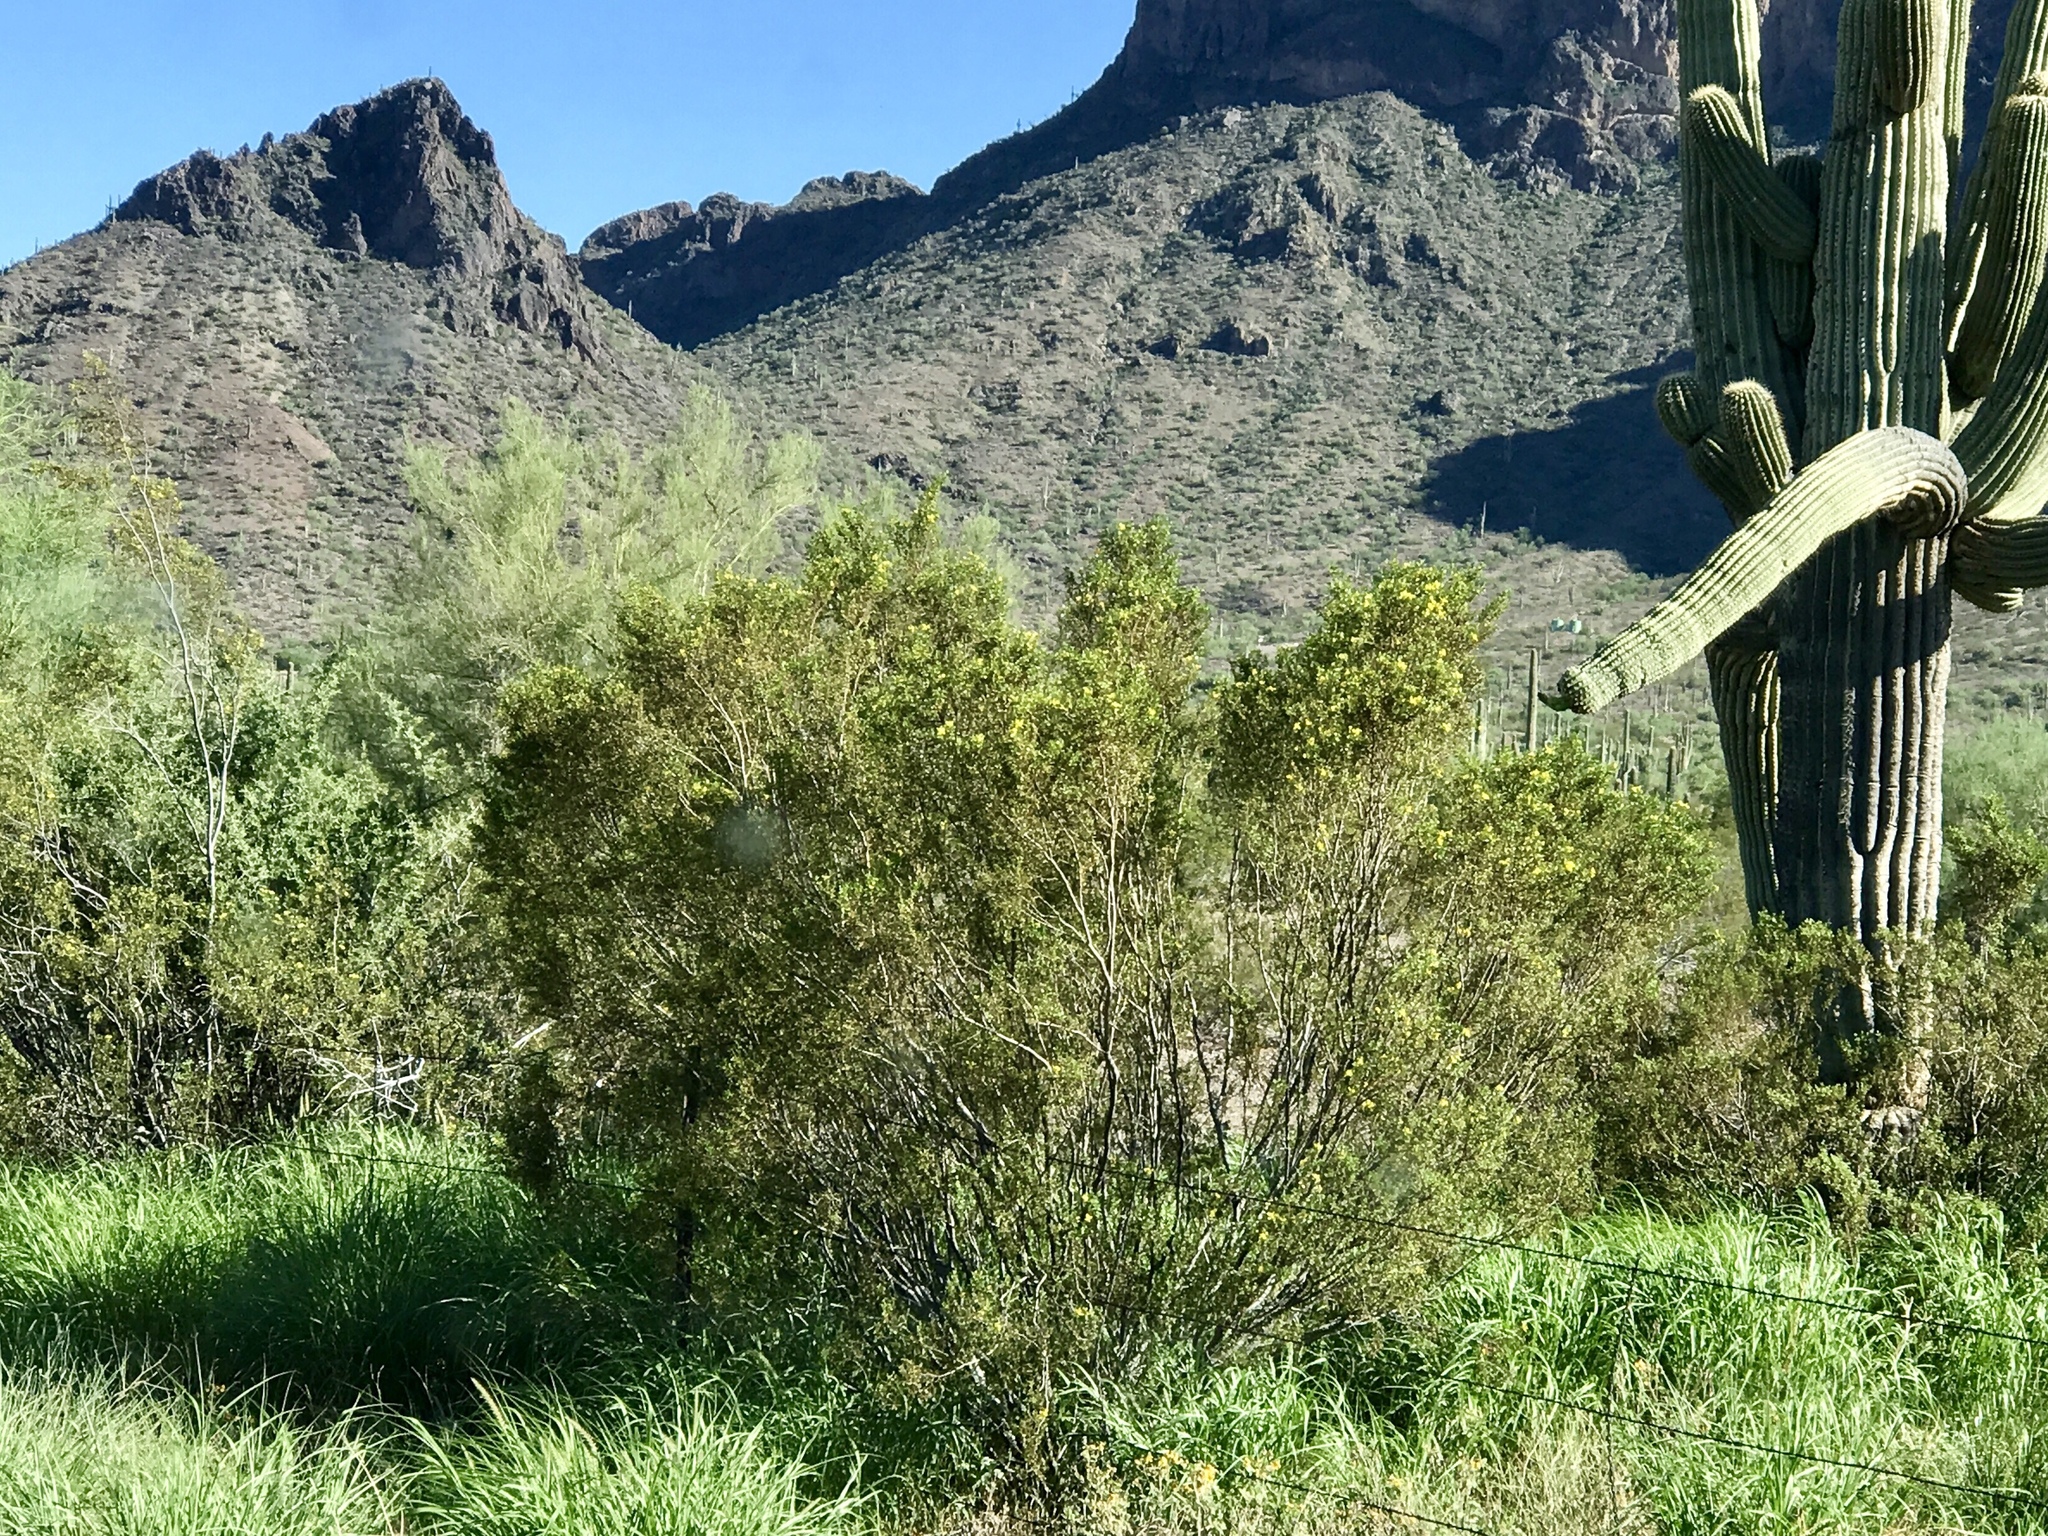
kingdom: Plantae
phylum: Tracheophyta
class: Magnoliopsida
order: Zygophyllales
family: Zygophyllaceae
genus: Larrea
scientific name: Larrea tridentata
